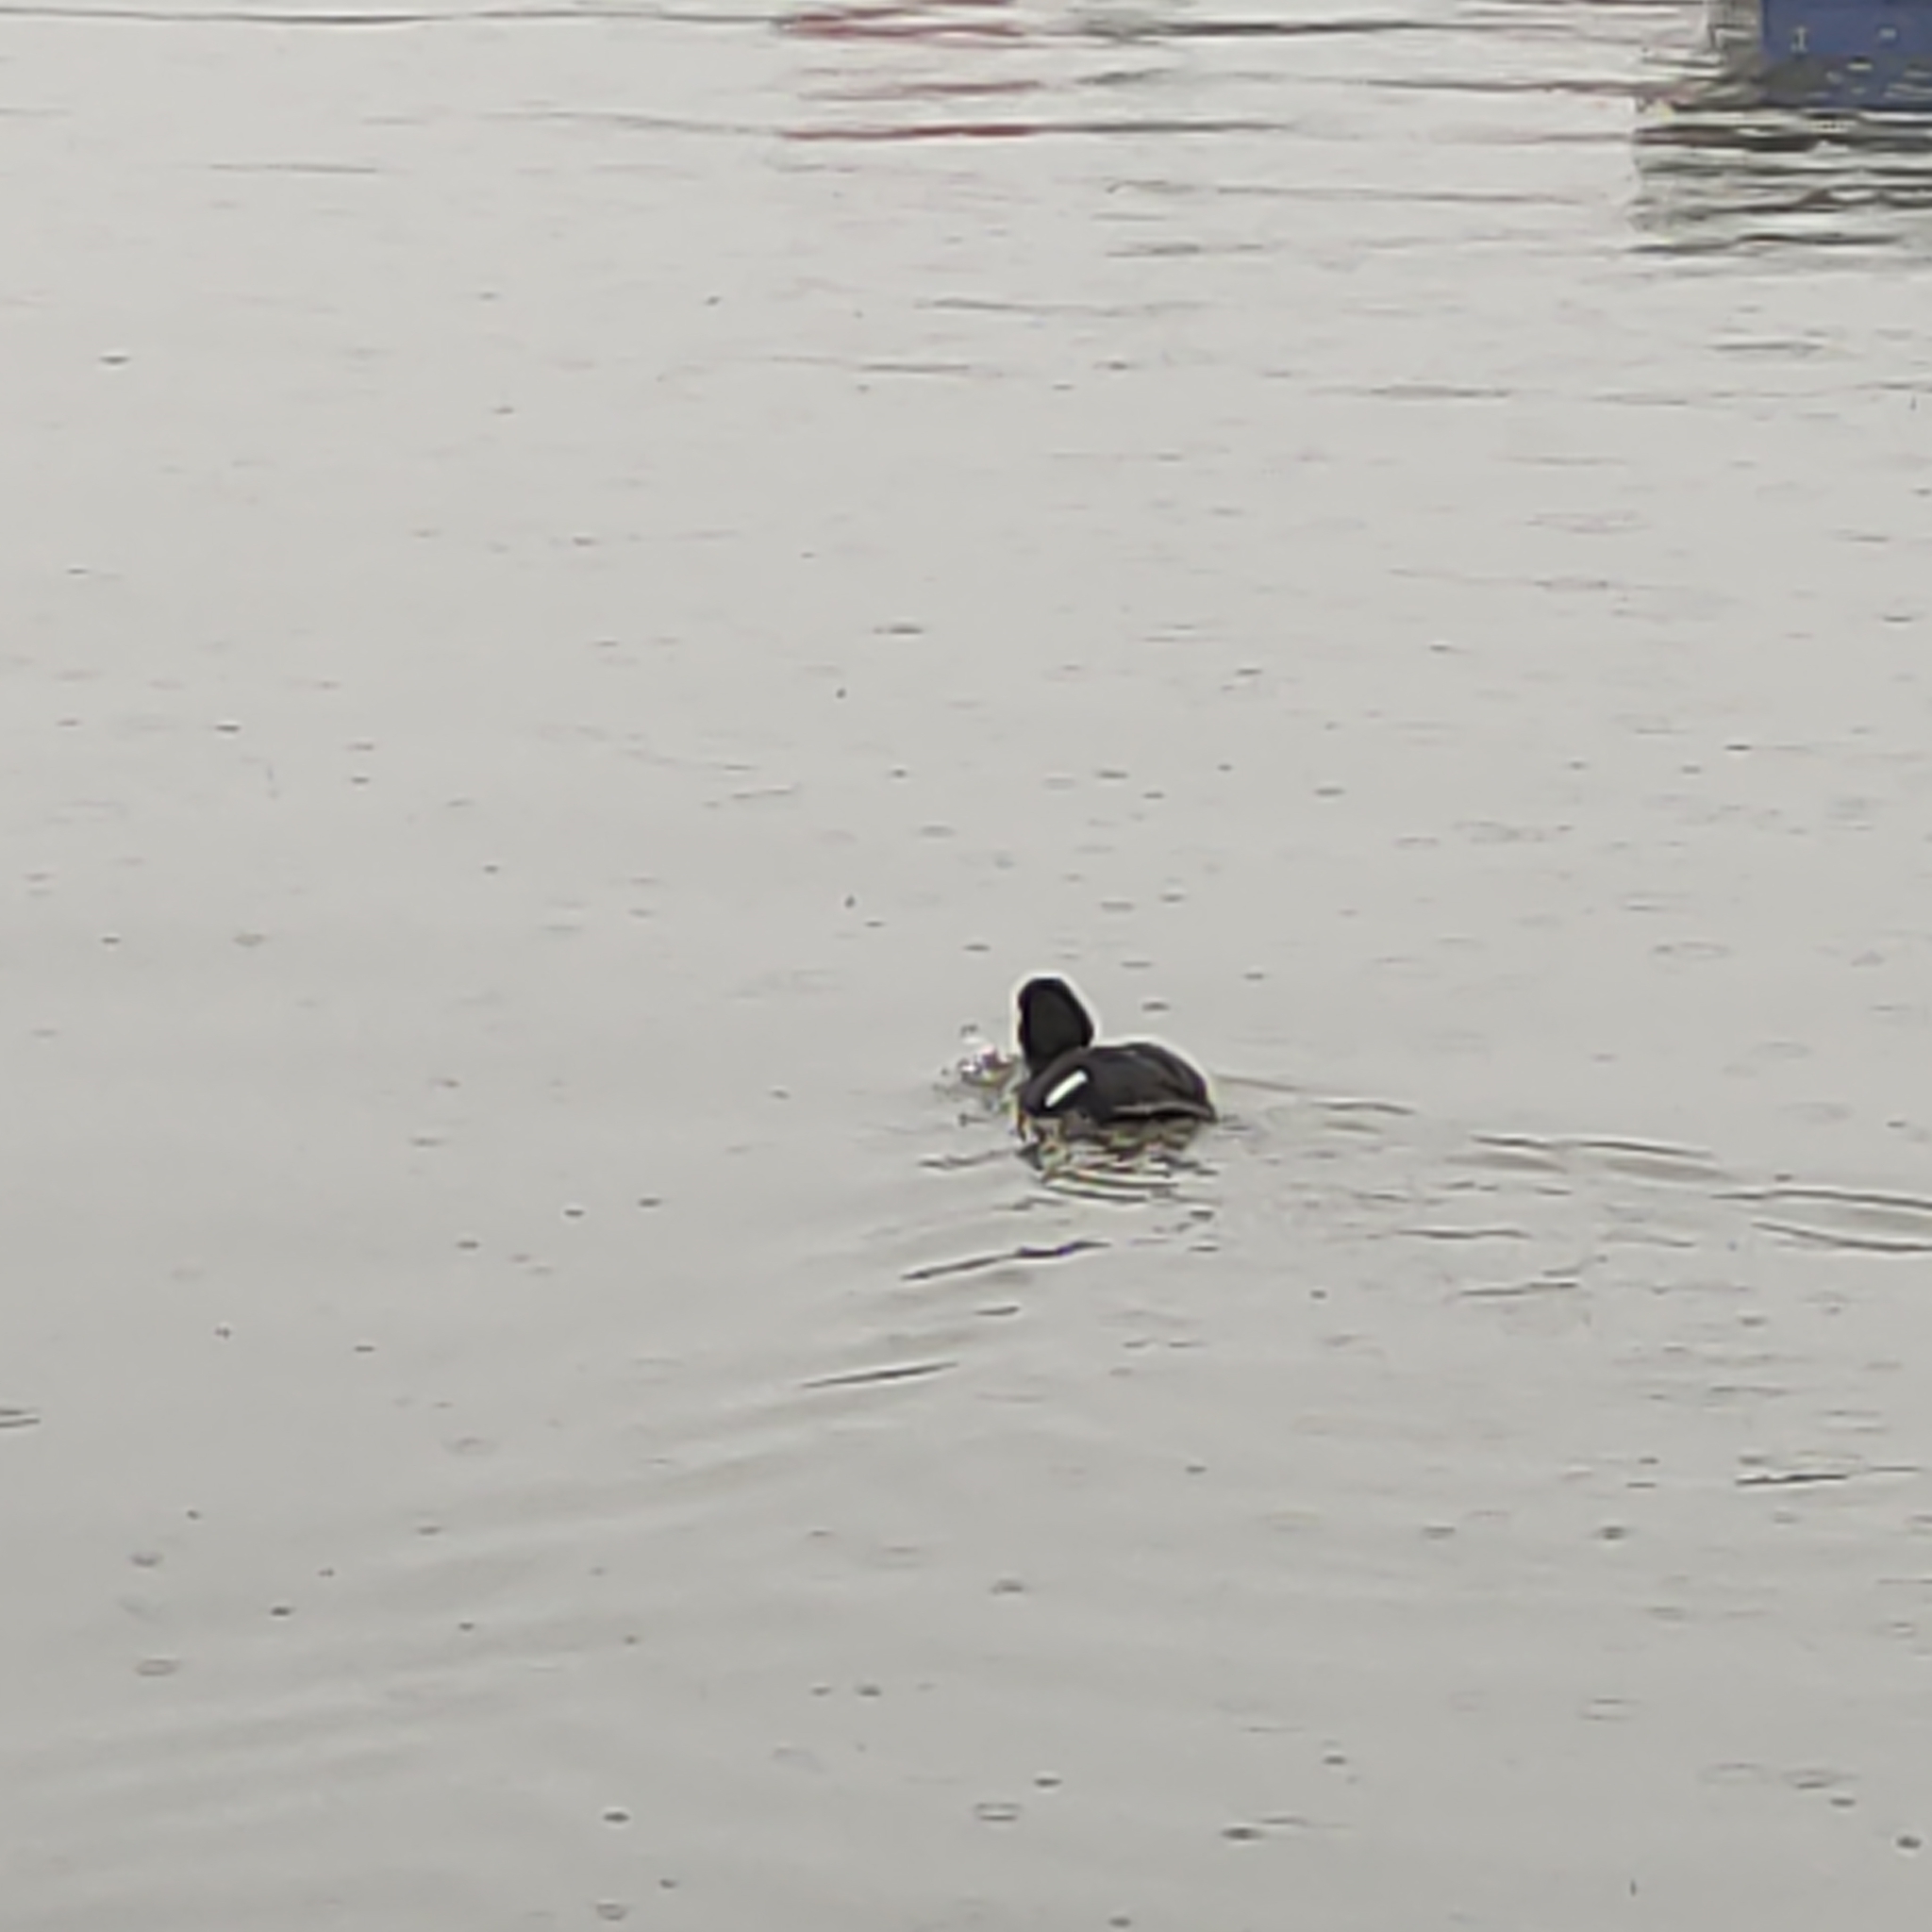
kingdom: Animalia
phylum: Chordata
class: Aves
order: Anseriformes
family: Anatidae
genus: Aythya
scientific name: Aythya novaeseelandiae
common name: New zealand scaup
